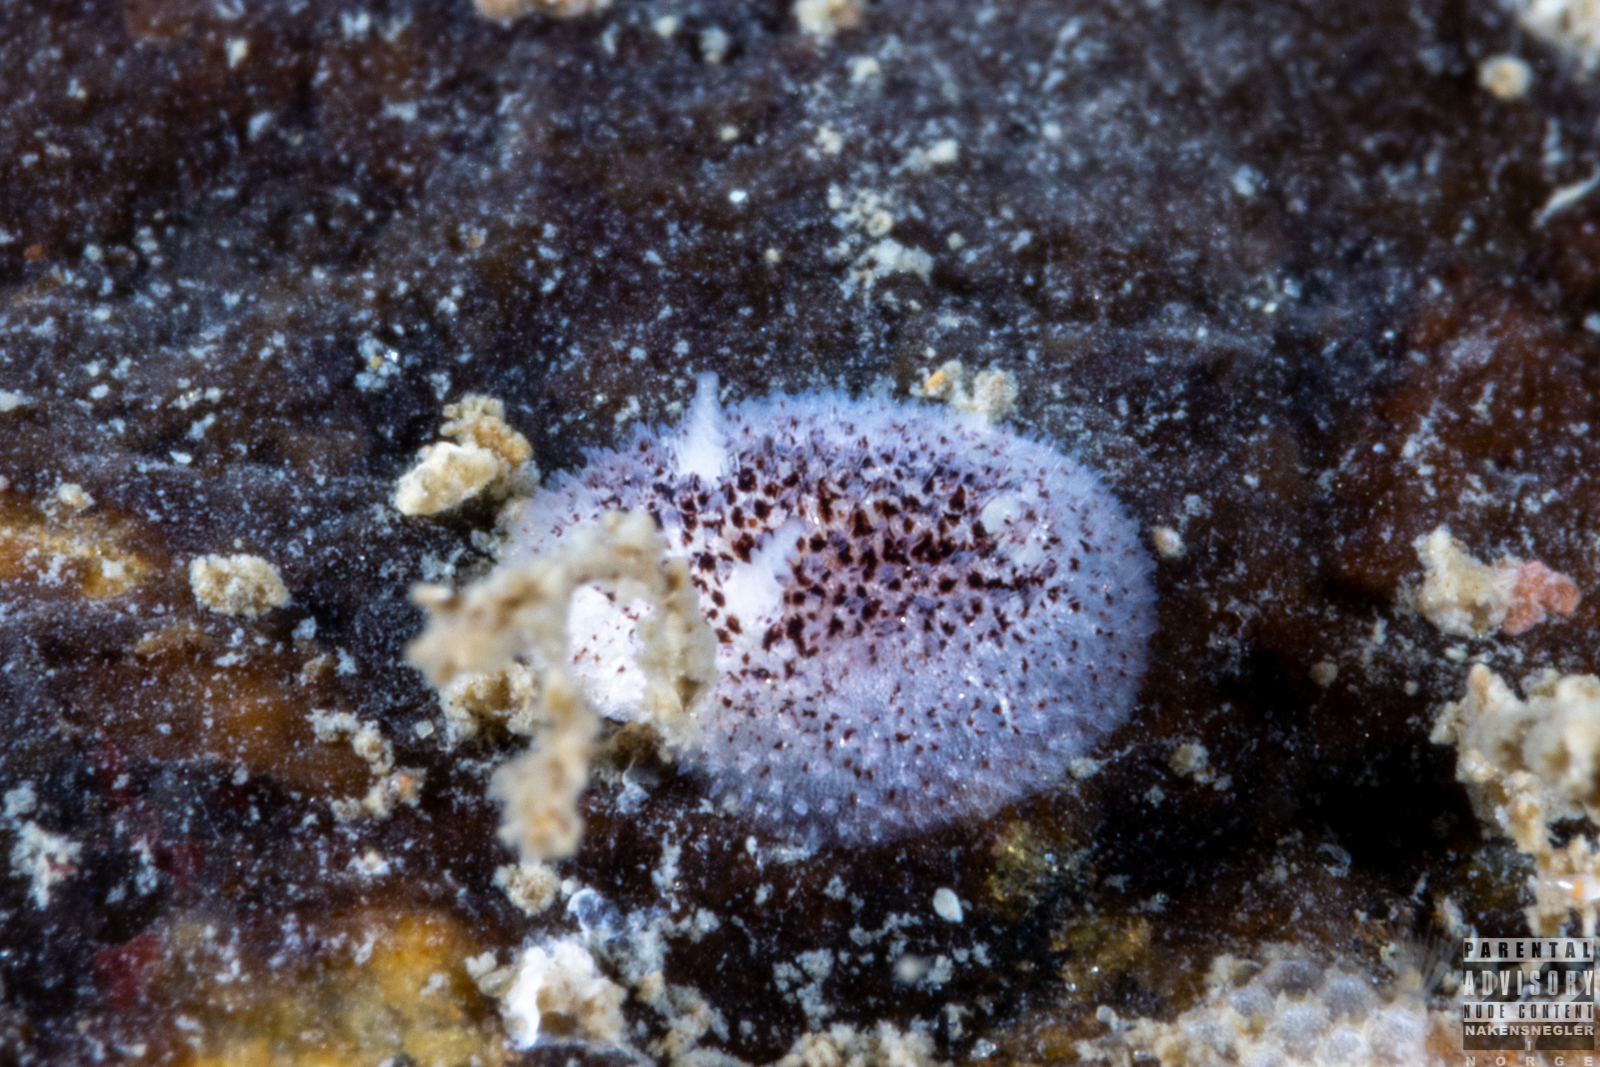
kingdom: Animalia
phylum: Mollusca
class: Gastropoda
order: Nudibranchia
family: Onchidorididae
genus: Atalodoris
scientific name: Atalodoris pusilla
